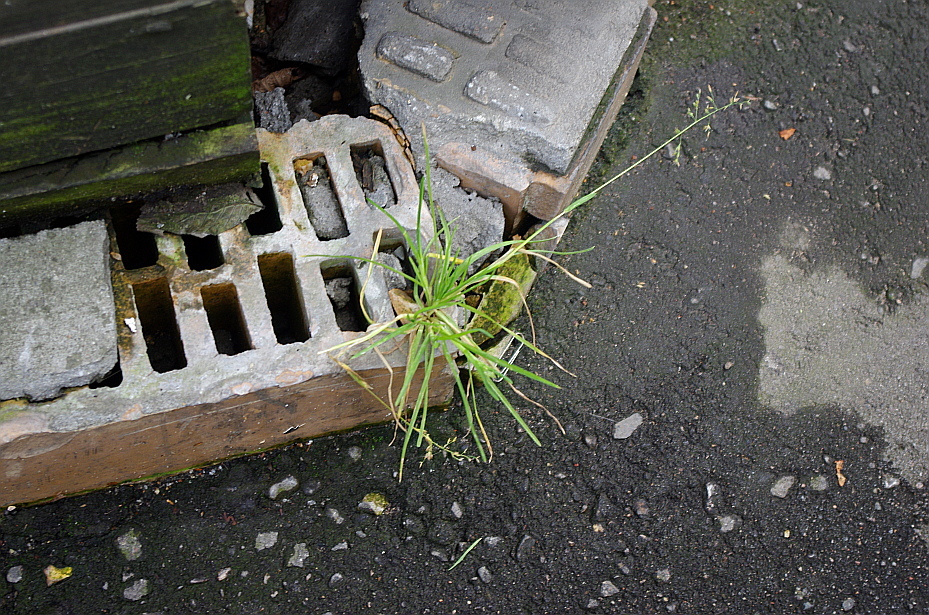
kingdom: Plantae
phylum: Tracheophyta
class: Liliopsida
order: Poales
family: Poaceae
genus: Poa
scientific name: Poa annua
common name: Annual bluegrass
